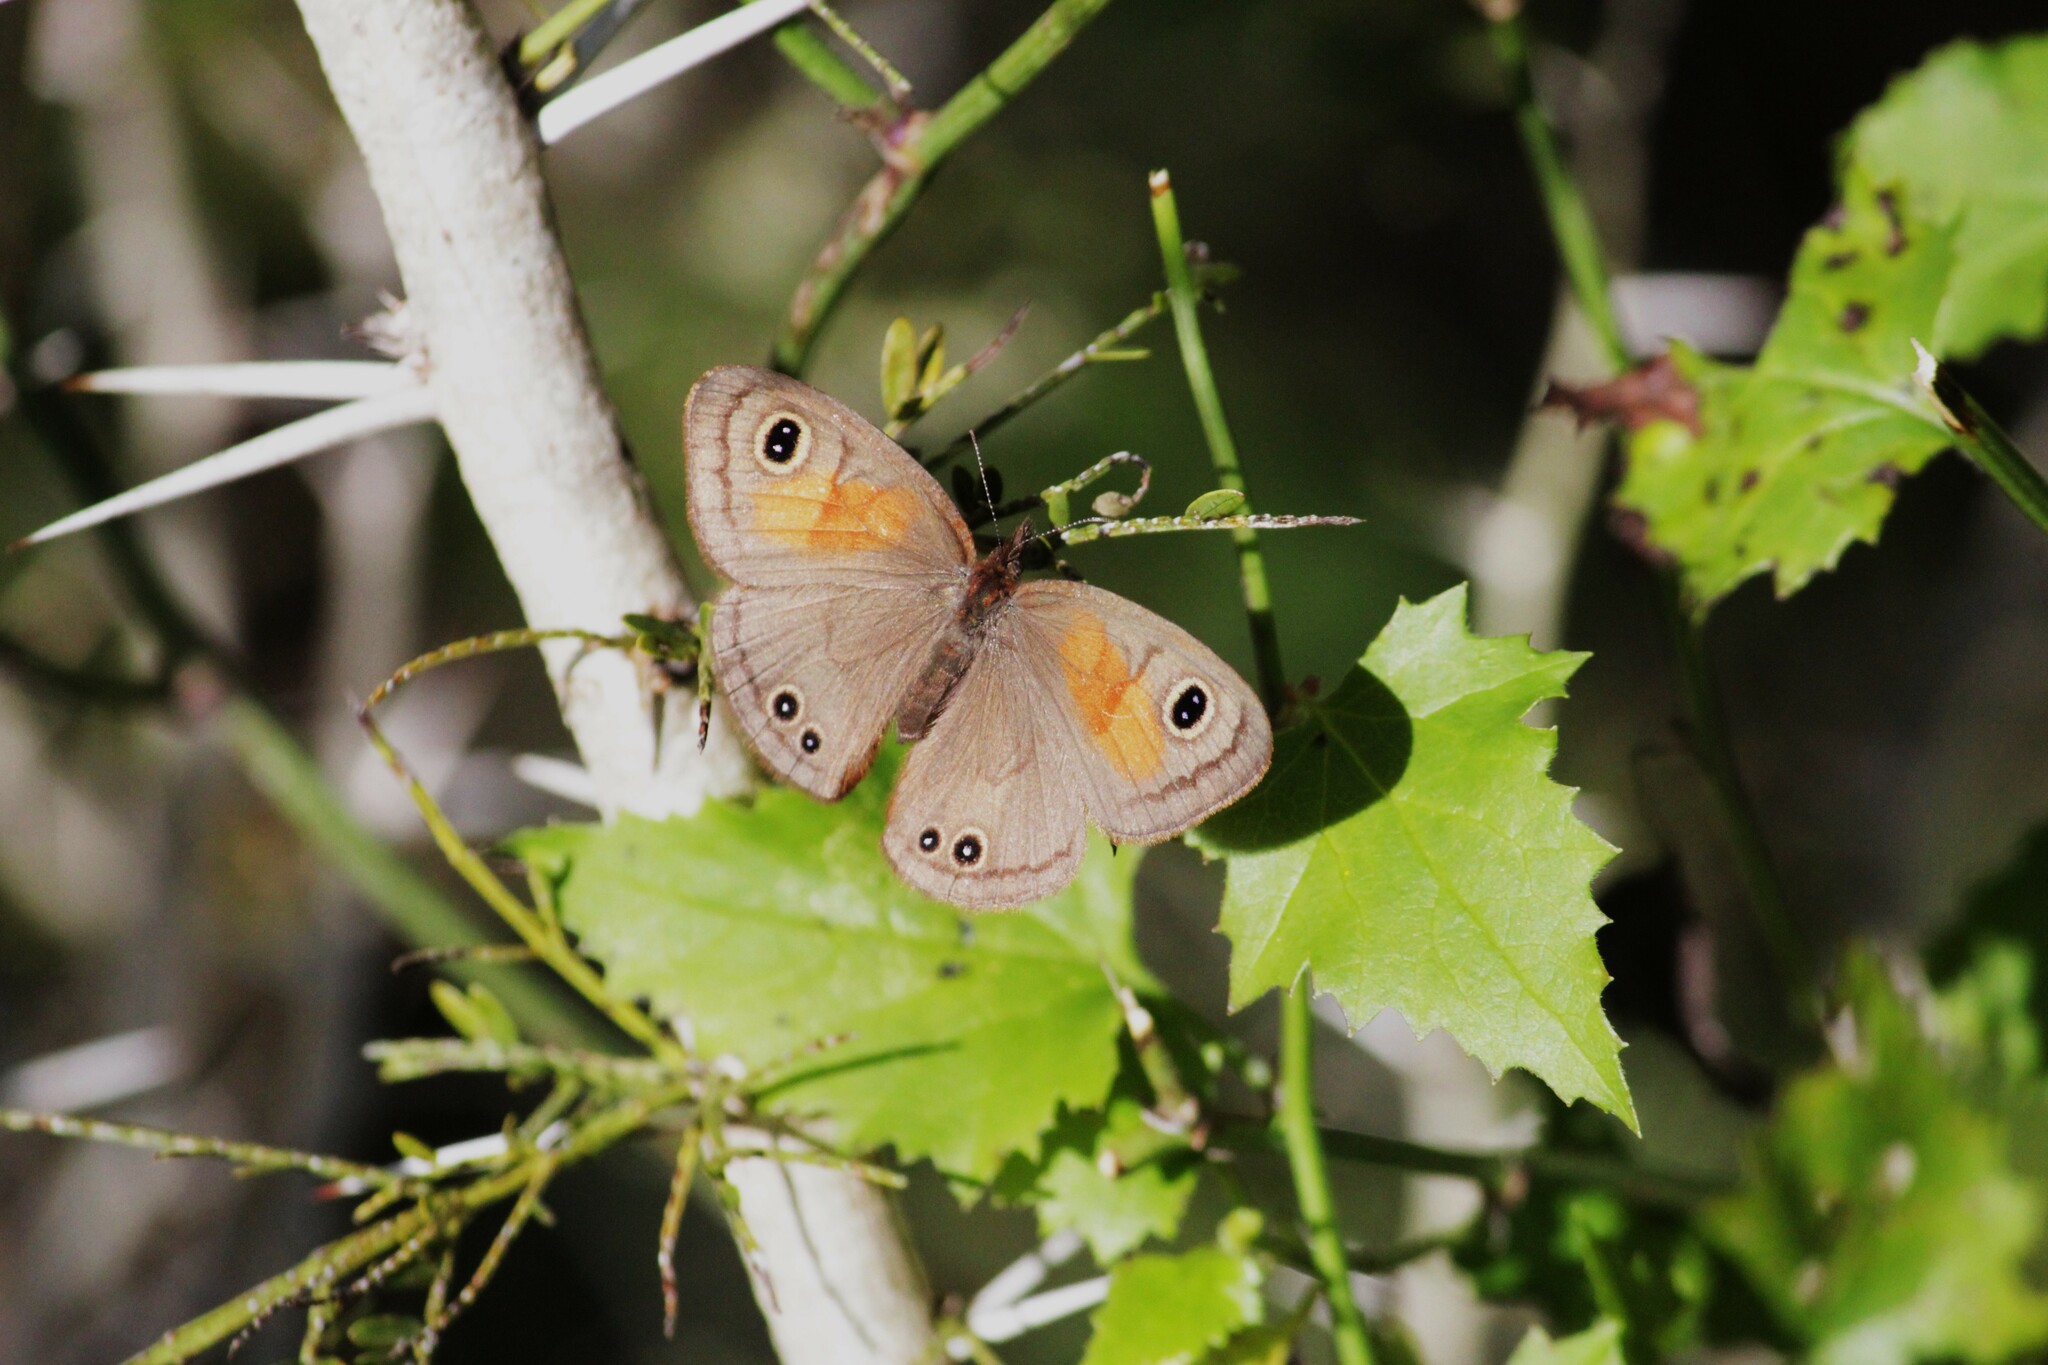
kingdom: Animalia
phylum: Arthropoda
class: Insecta
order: Lepidoptera
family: Nymphalidae
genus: Cassionympha
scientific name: Cassionympha cassius
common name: Rainforest brown
